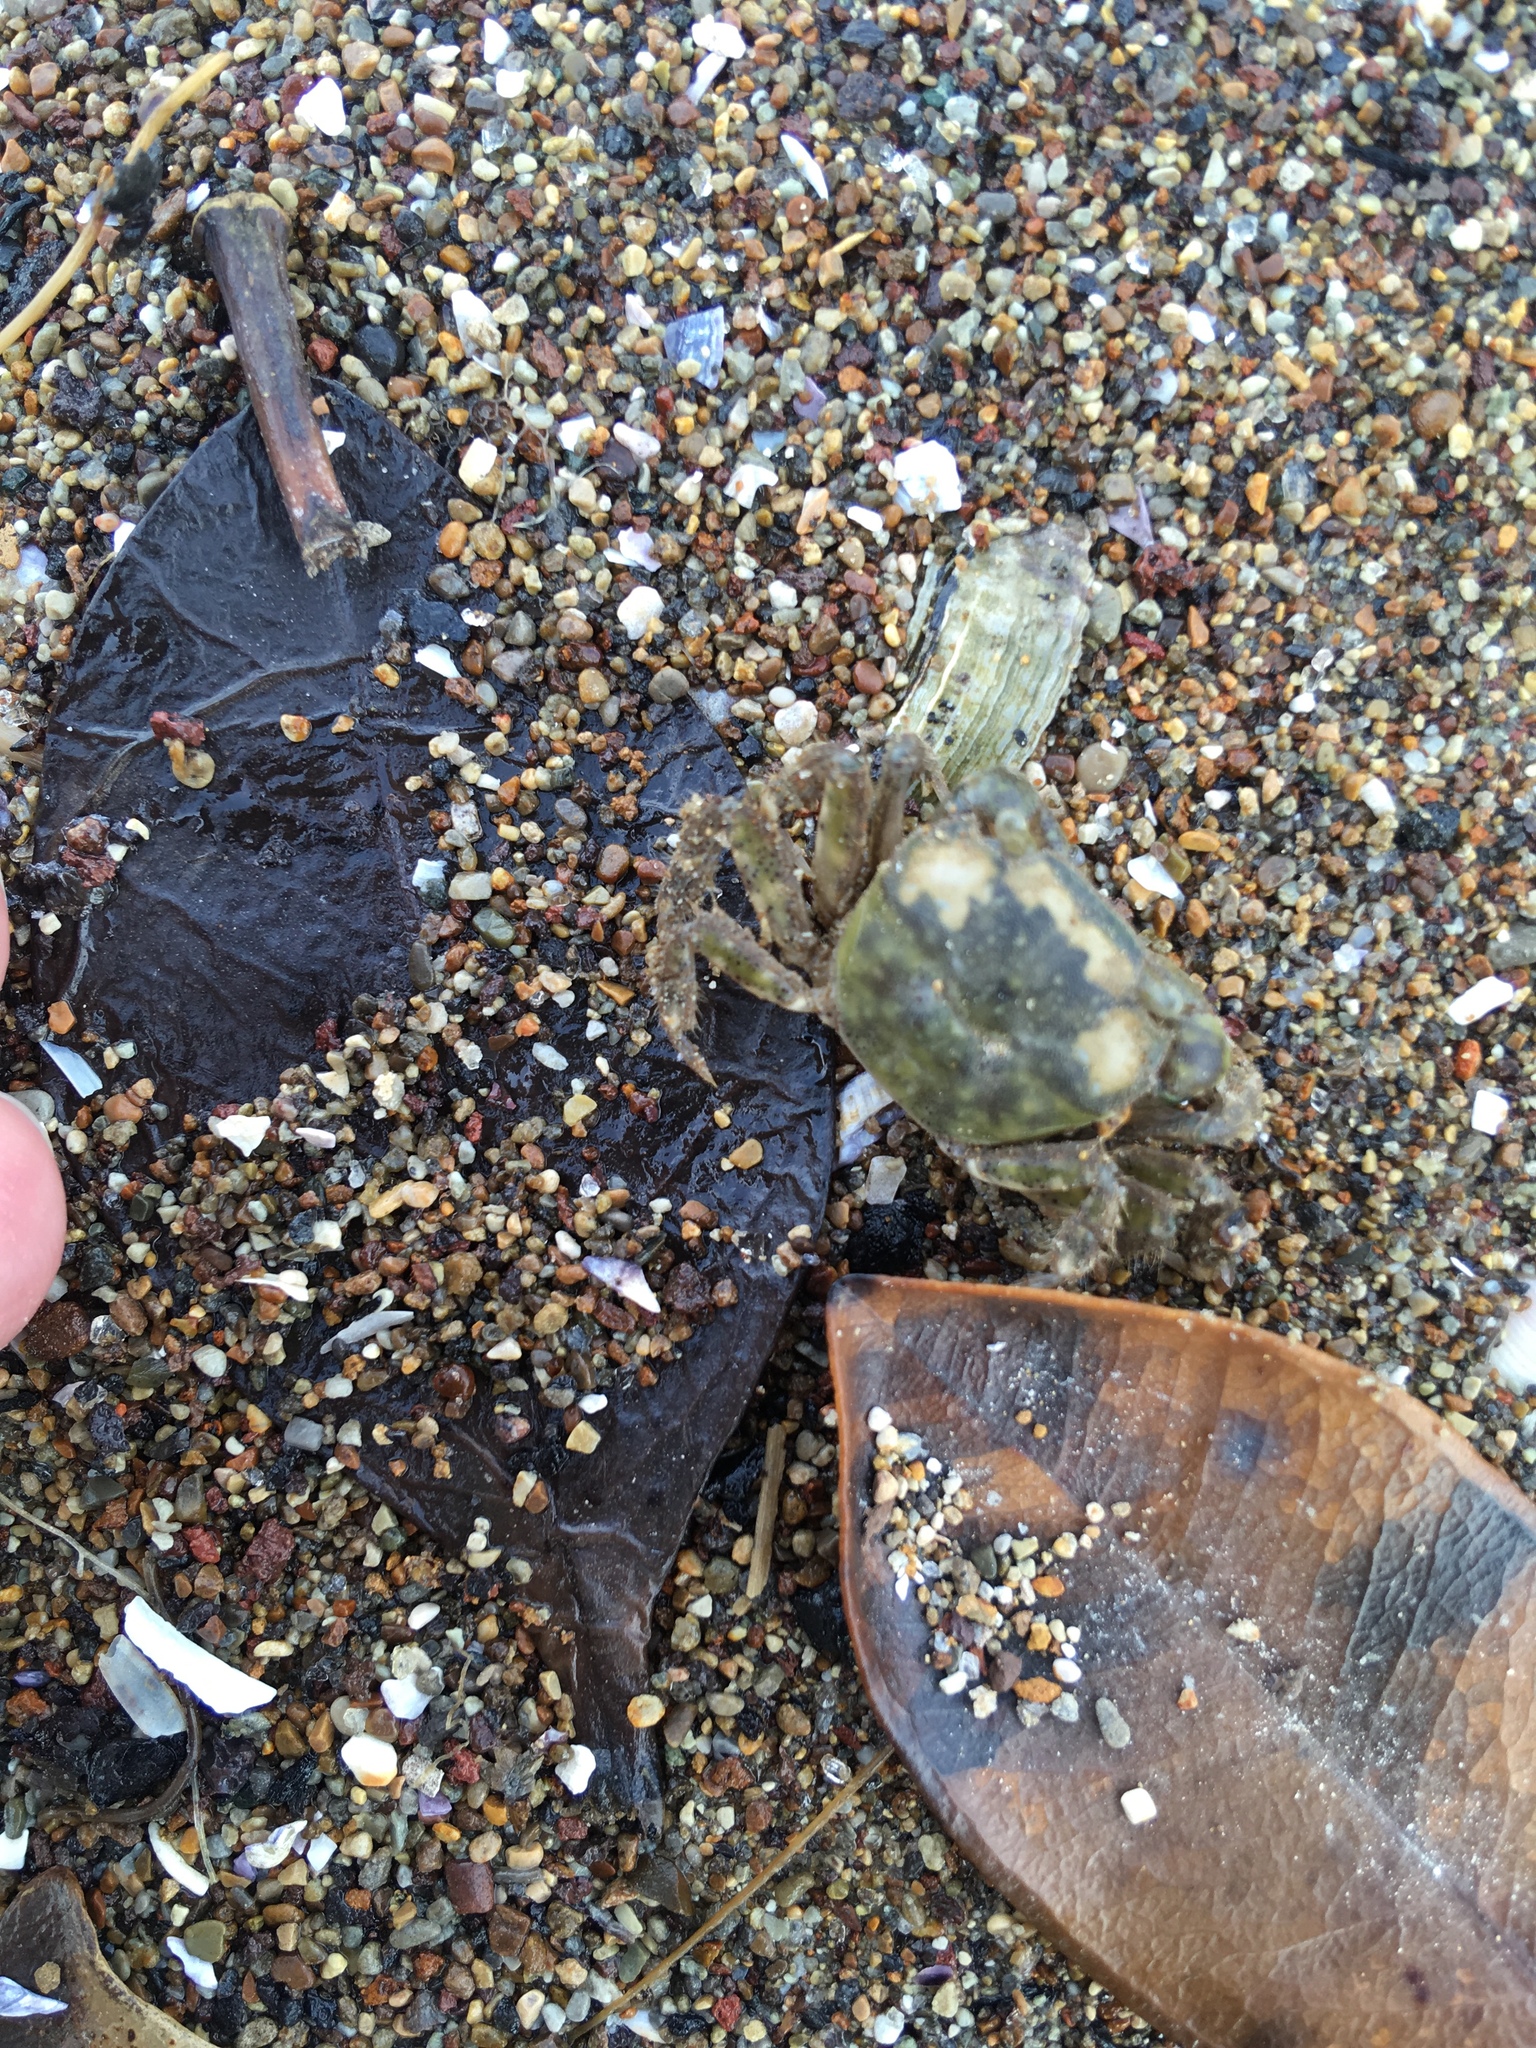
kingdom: Animalia
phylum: Arthropoda
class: Malacostraca
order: Decapoda
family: Varunidae
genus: Hemigrapsus
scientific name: Hemigrapsus crenulatus
